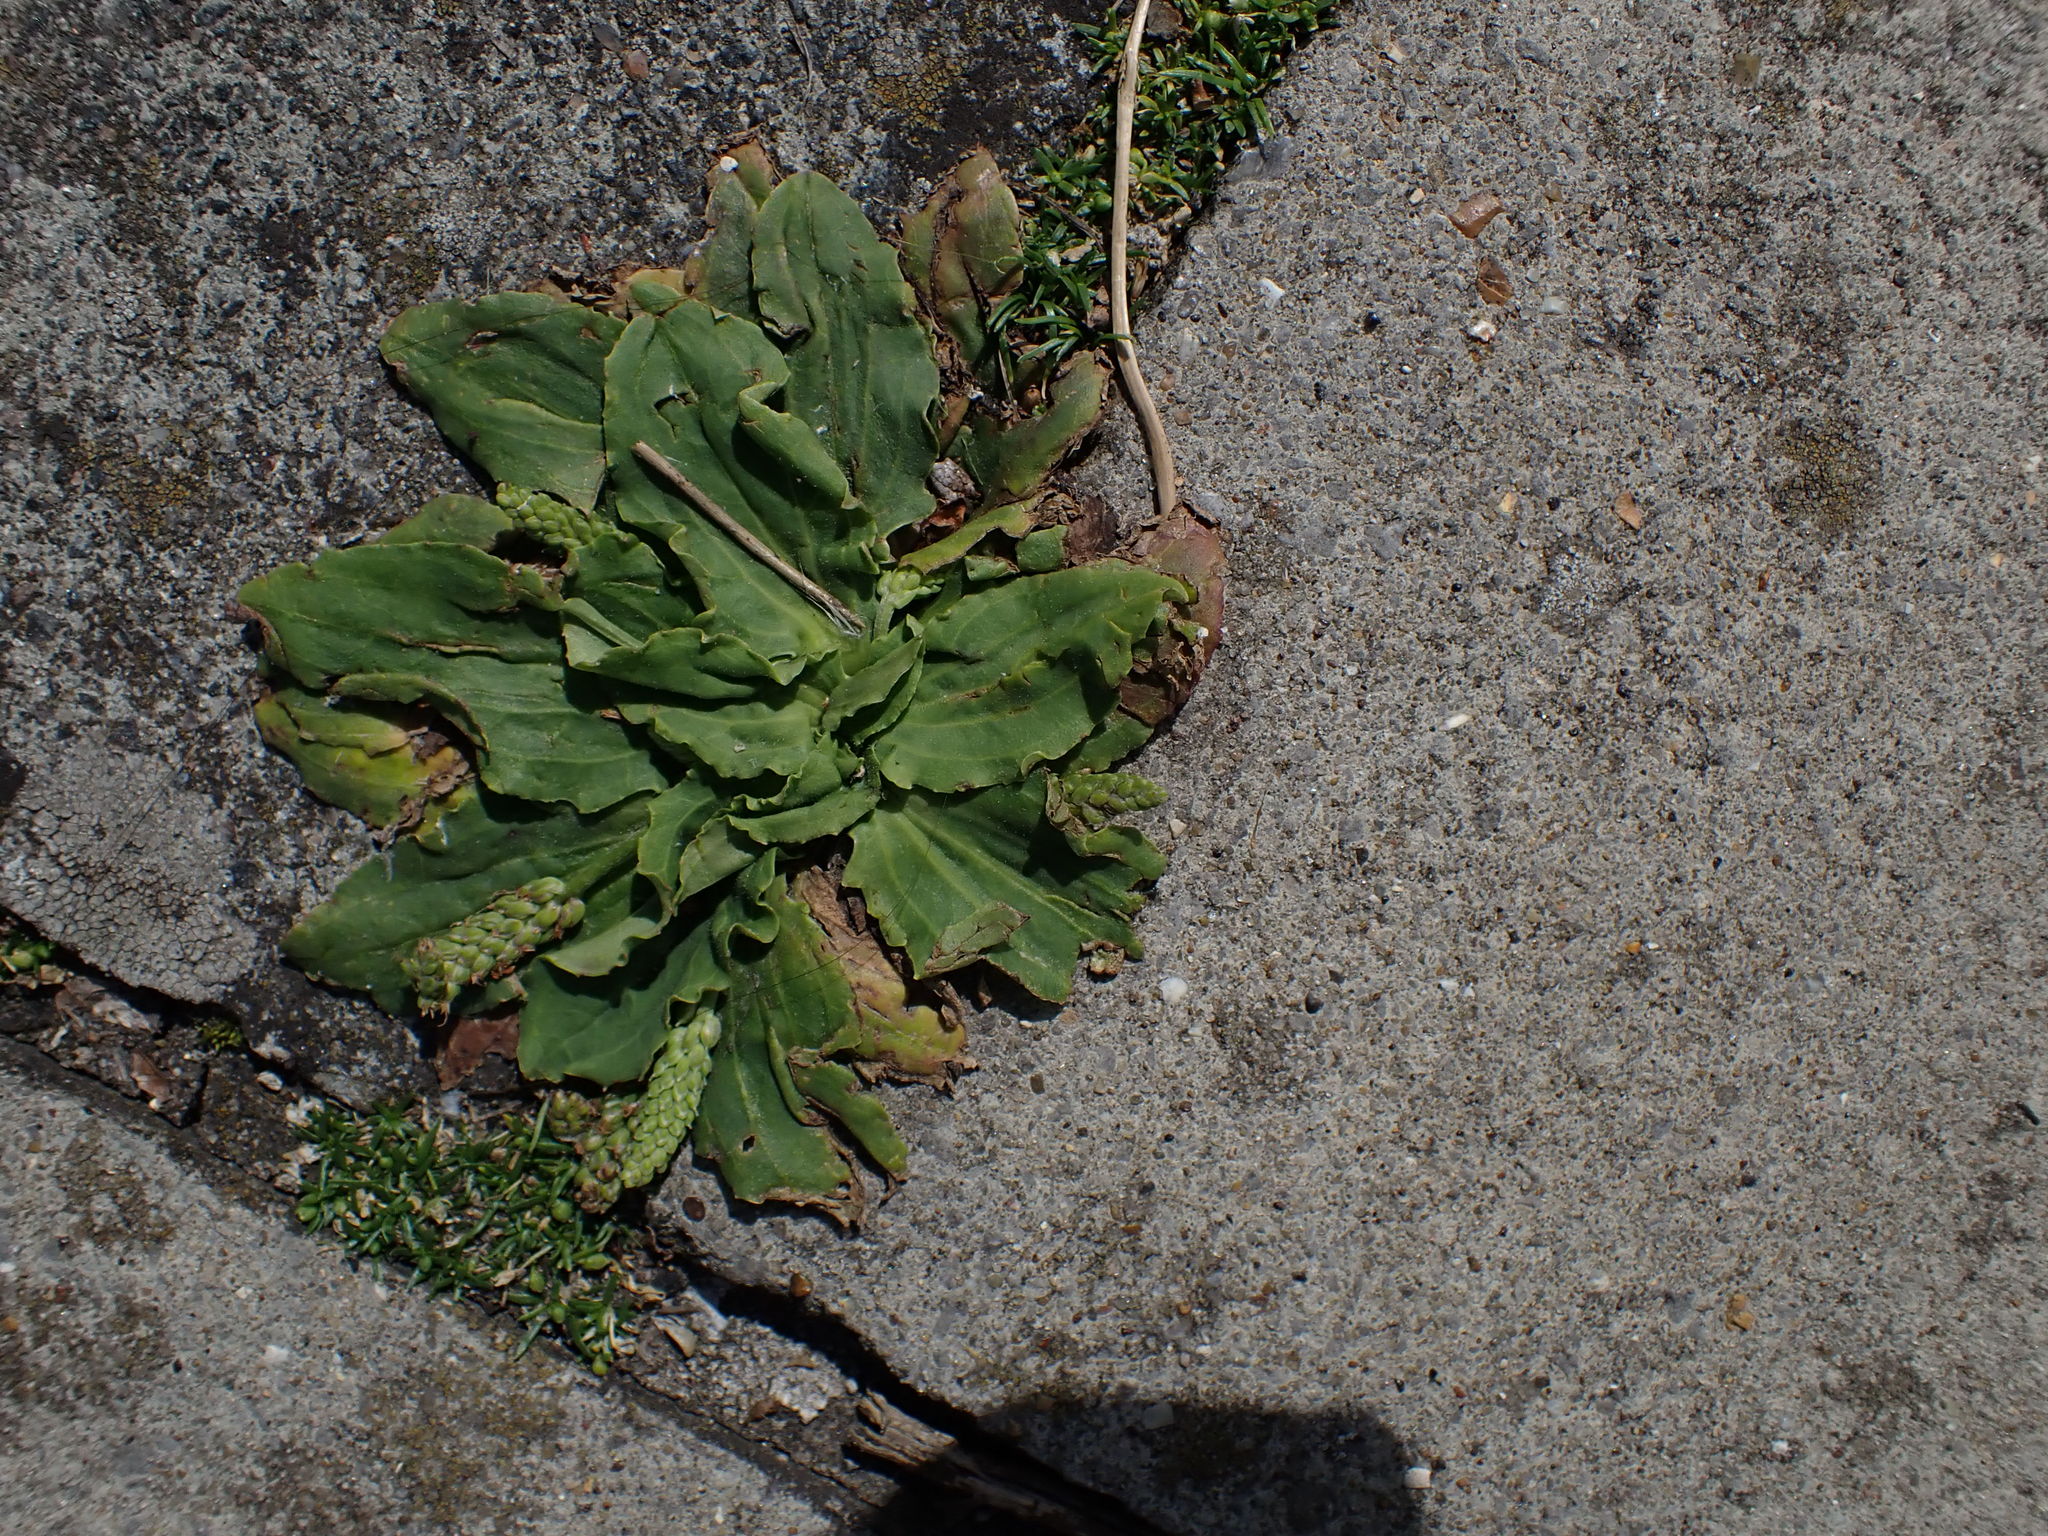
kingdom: Plantae
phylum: Tracheophyta
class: Magnoliopsida
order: Lamiales
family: Plantaginaceae
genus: Plantago
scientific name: Plantago major
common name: Common plantain
